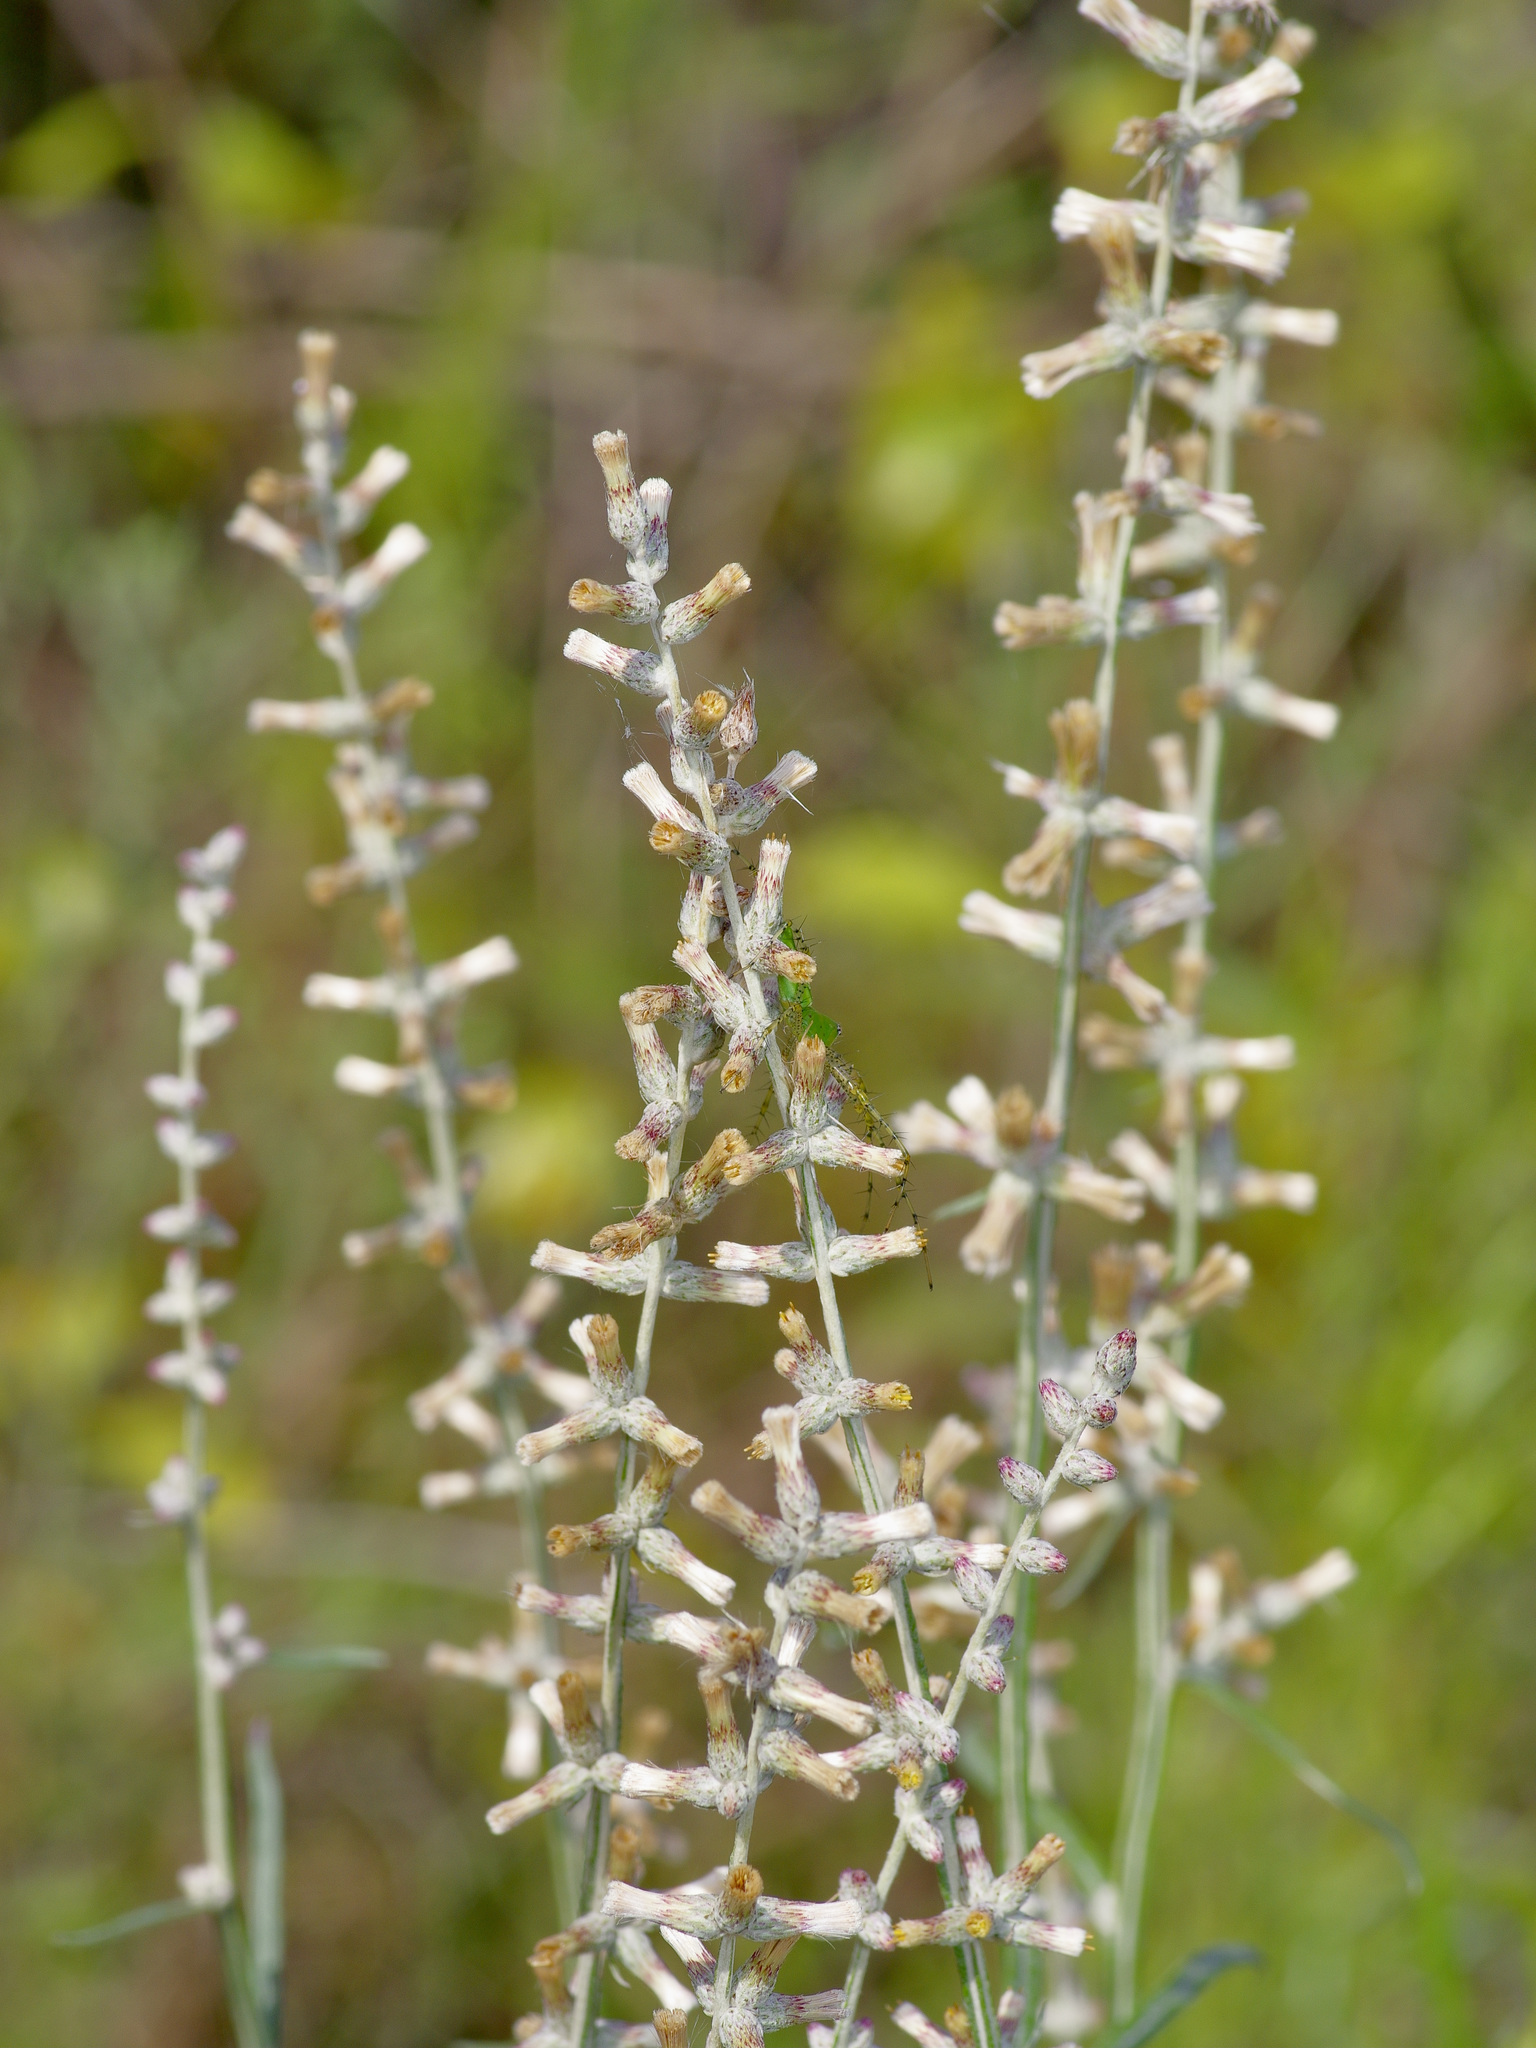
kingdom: Plantae
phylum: Tracheophyta
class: Magnoliopsida
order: Asterales
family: Asteraceae
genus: Pterocaulon
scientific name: Pterocaulon virgatum
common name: Wand blackroot
